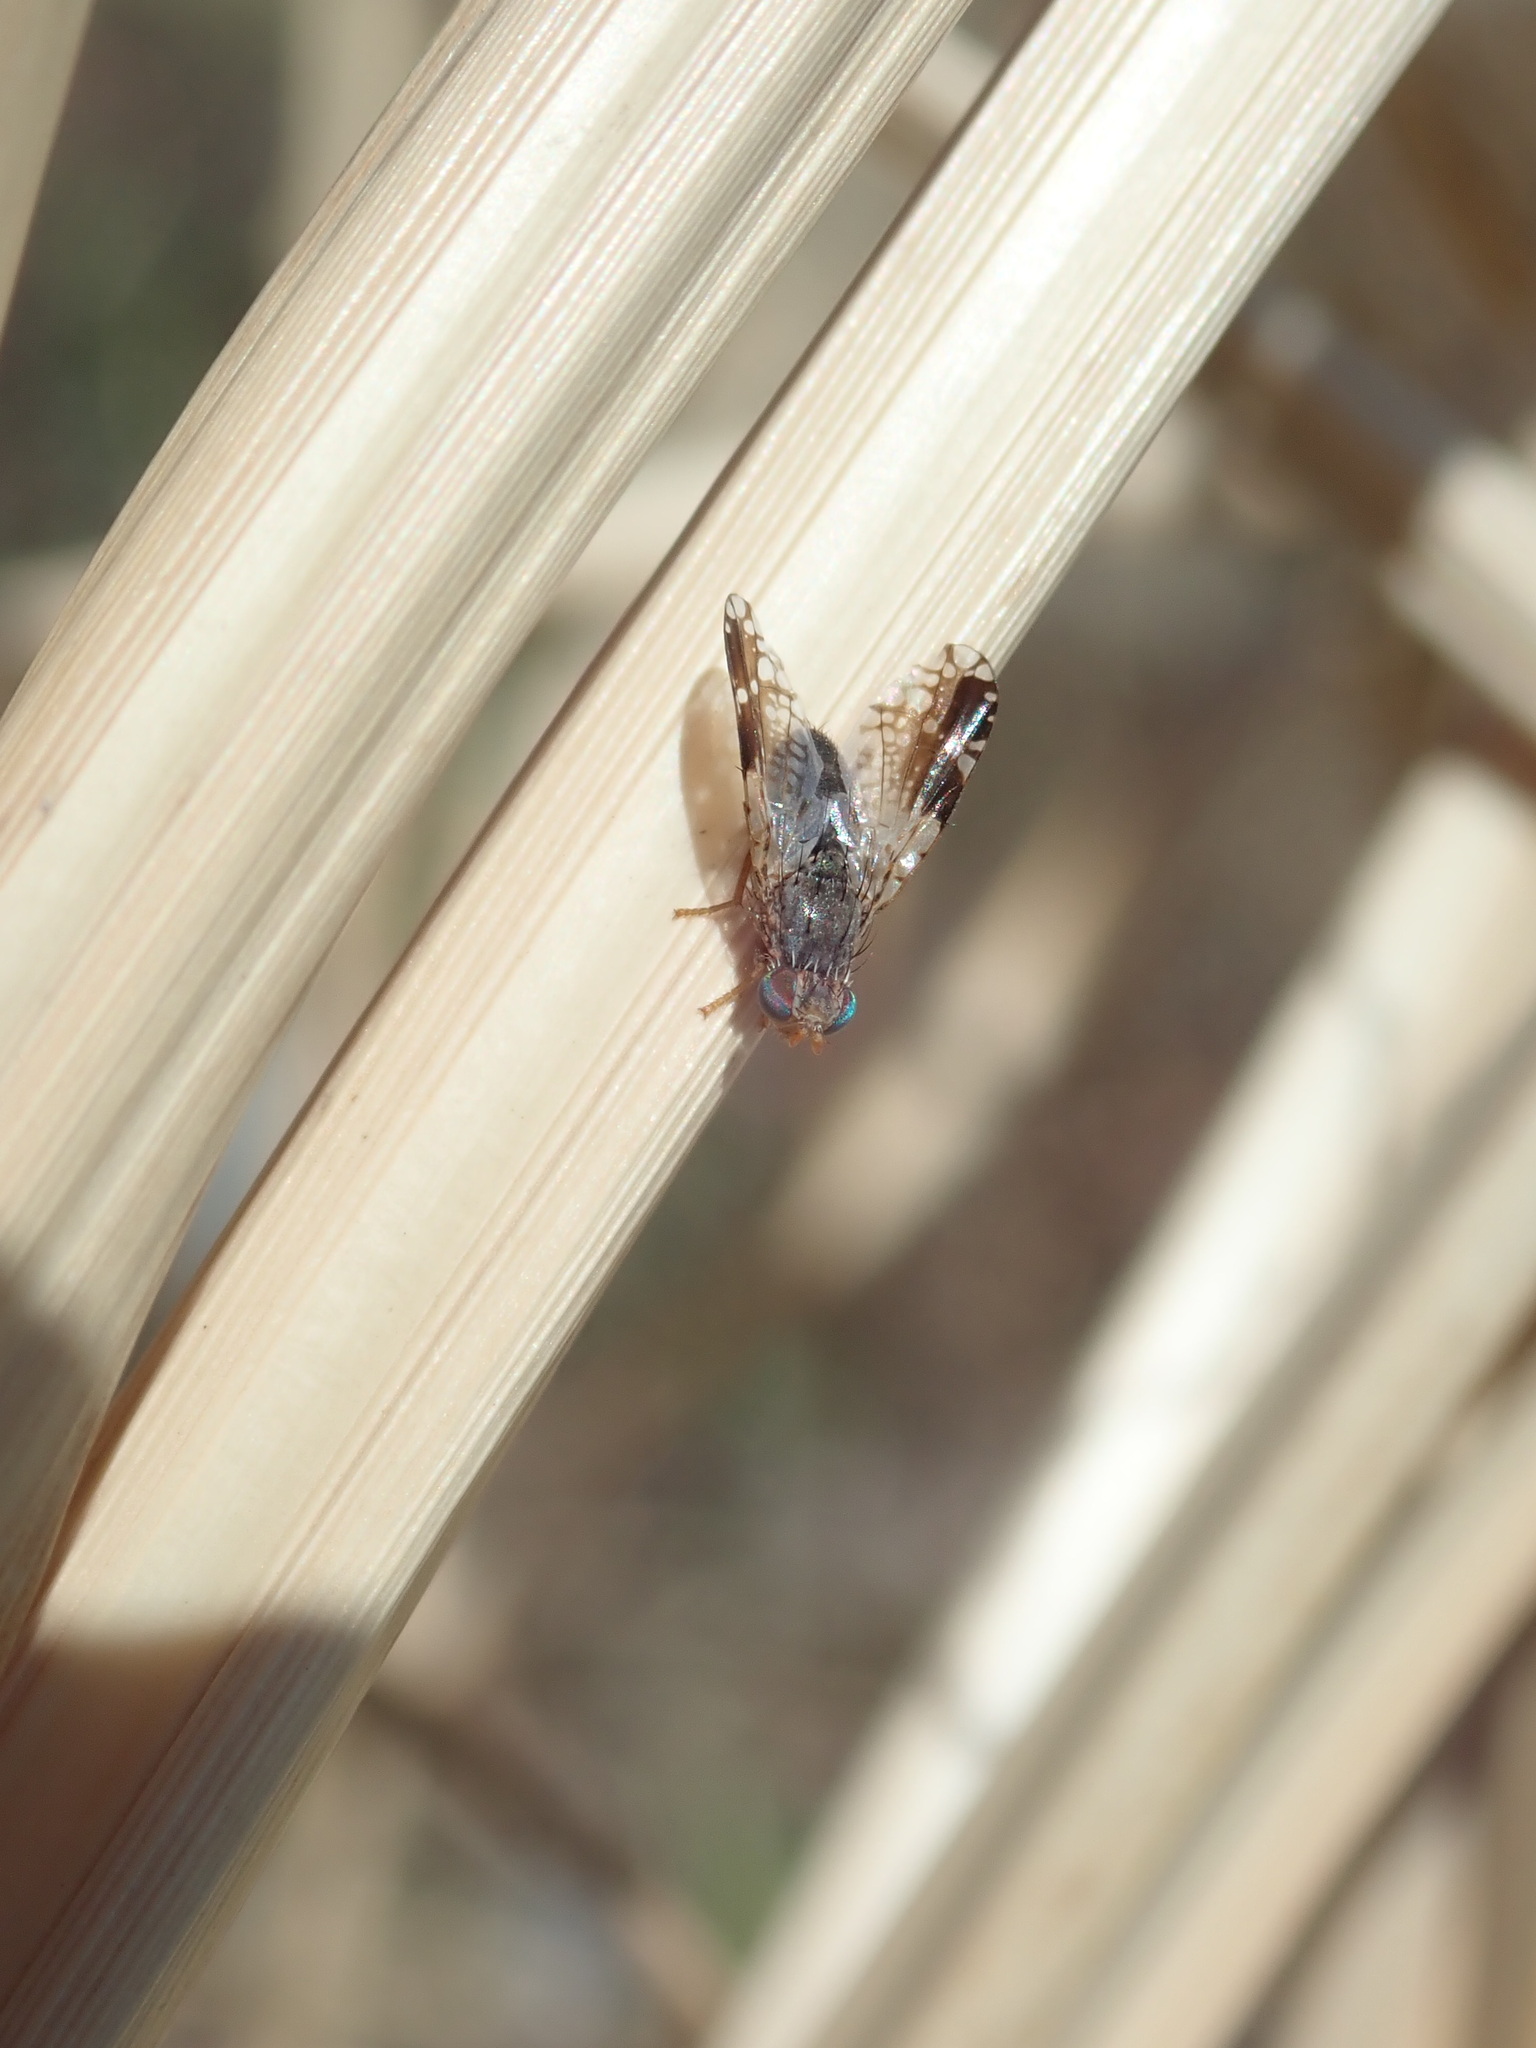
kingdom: Animalia
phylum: Arthropoda
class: Insecta
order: Diptera
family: Tephritidae
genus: Tephritis
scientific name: Tephritis
